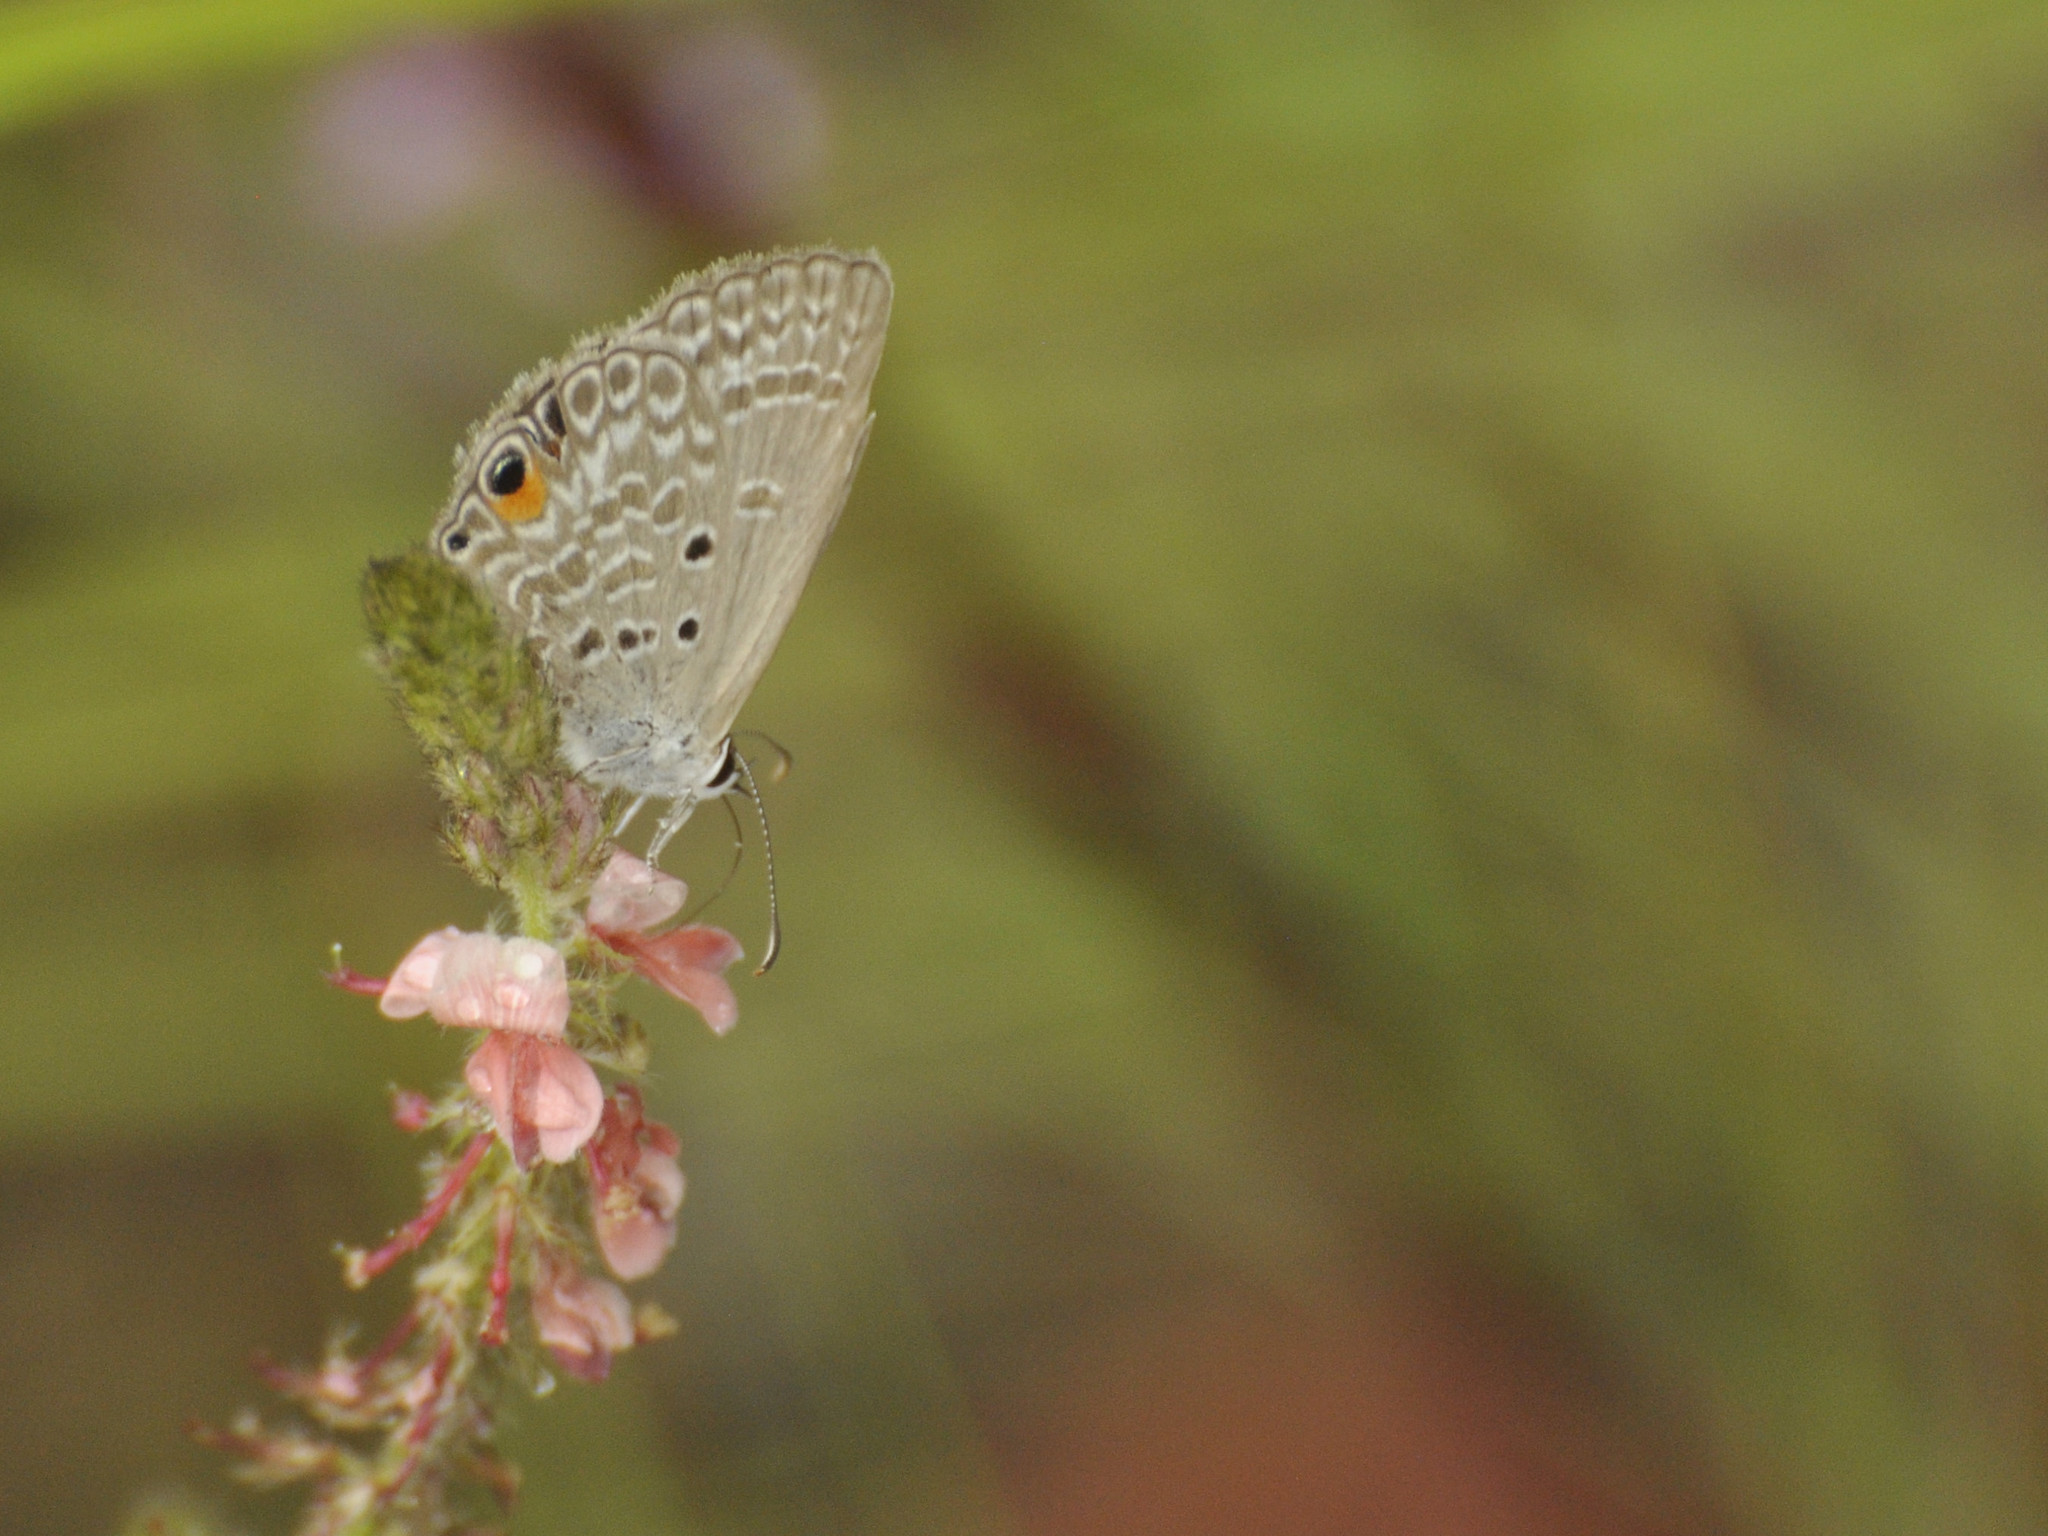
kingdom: Animalia
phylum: Arthropoda
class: Insecta
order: Lepidoptera
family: Lycaenidae
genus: Euchrysops
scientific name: Euchrysops malathana
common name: Common smoky blue
